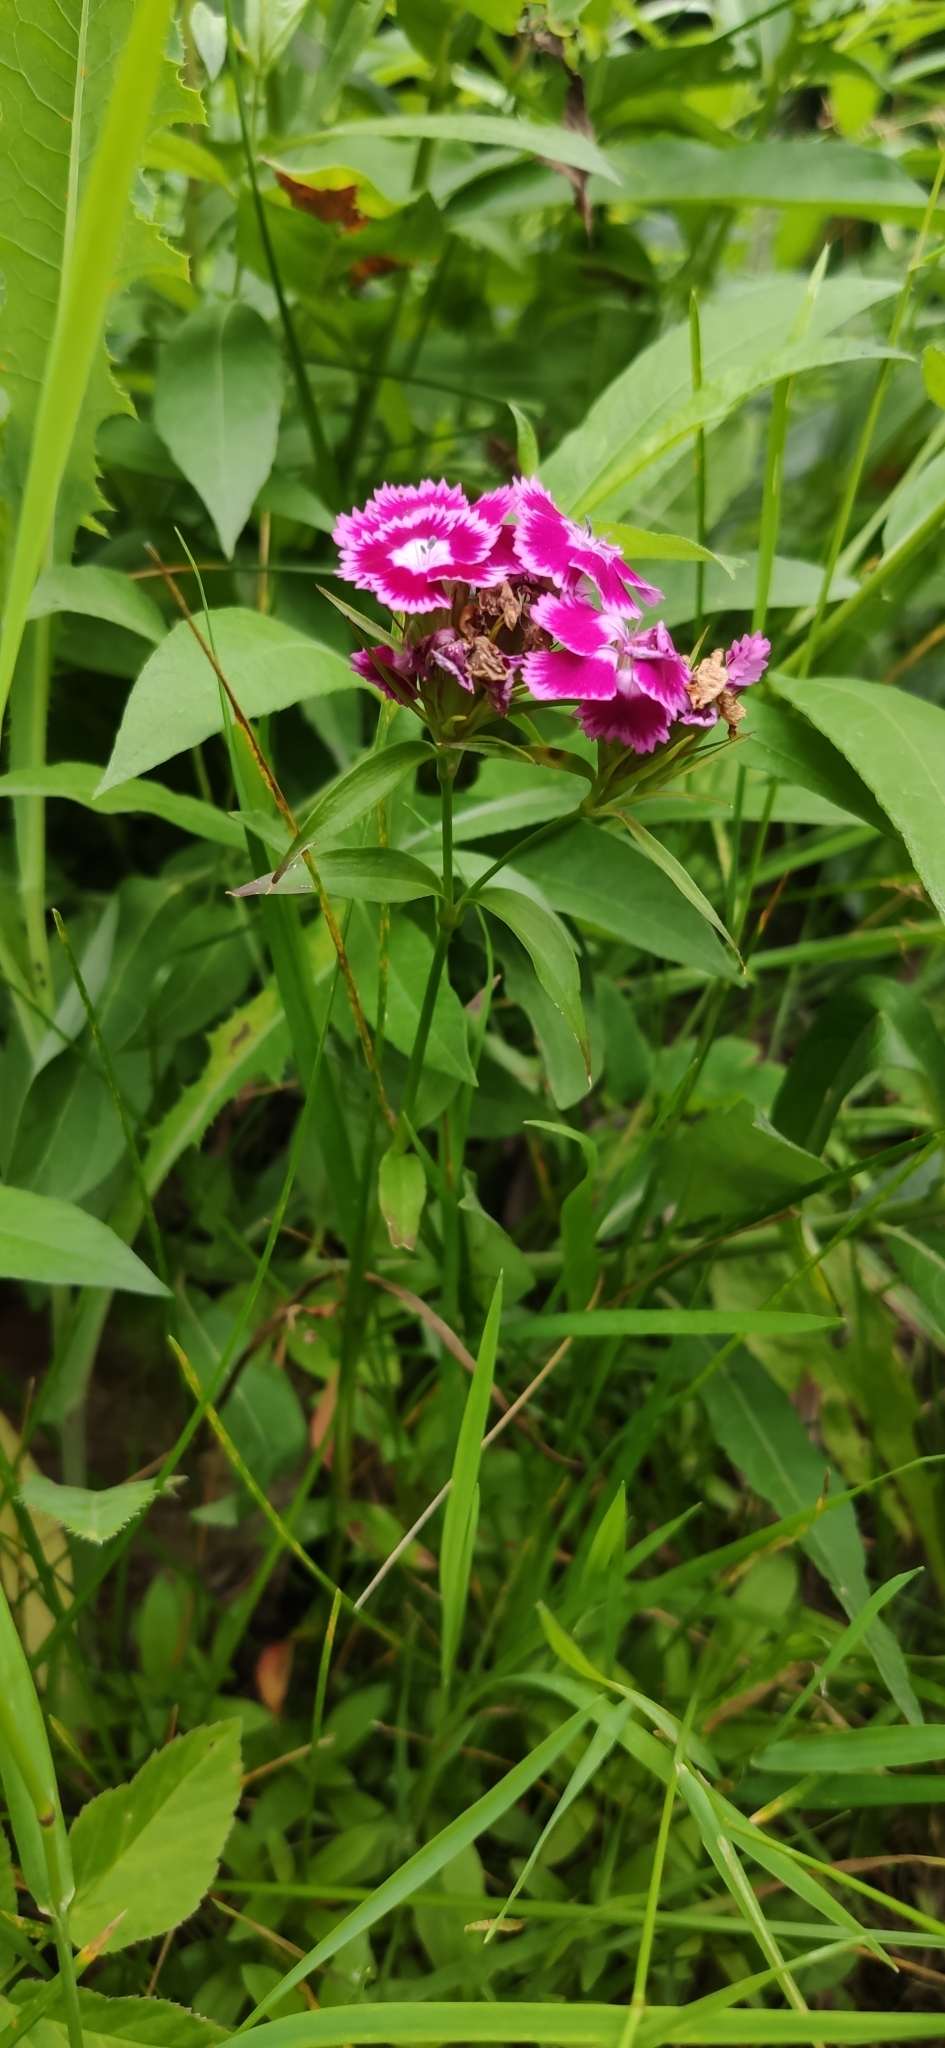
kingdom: Plantae
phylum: Tracheophyta
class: Magnoliopsida
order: Caryophyllales
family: Caryophyllaceae
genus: Dianthus
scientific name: Dianthus barbatus
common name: Sweet-william
